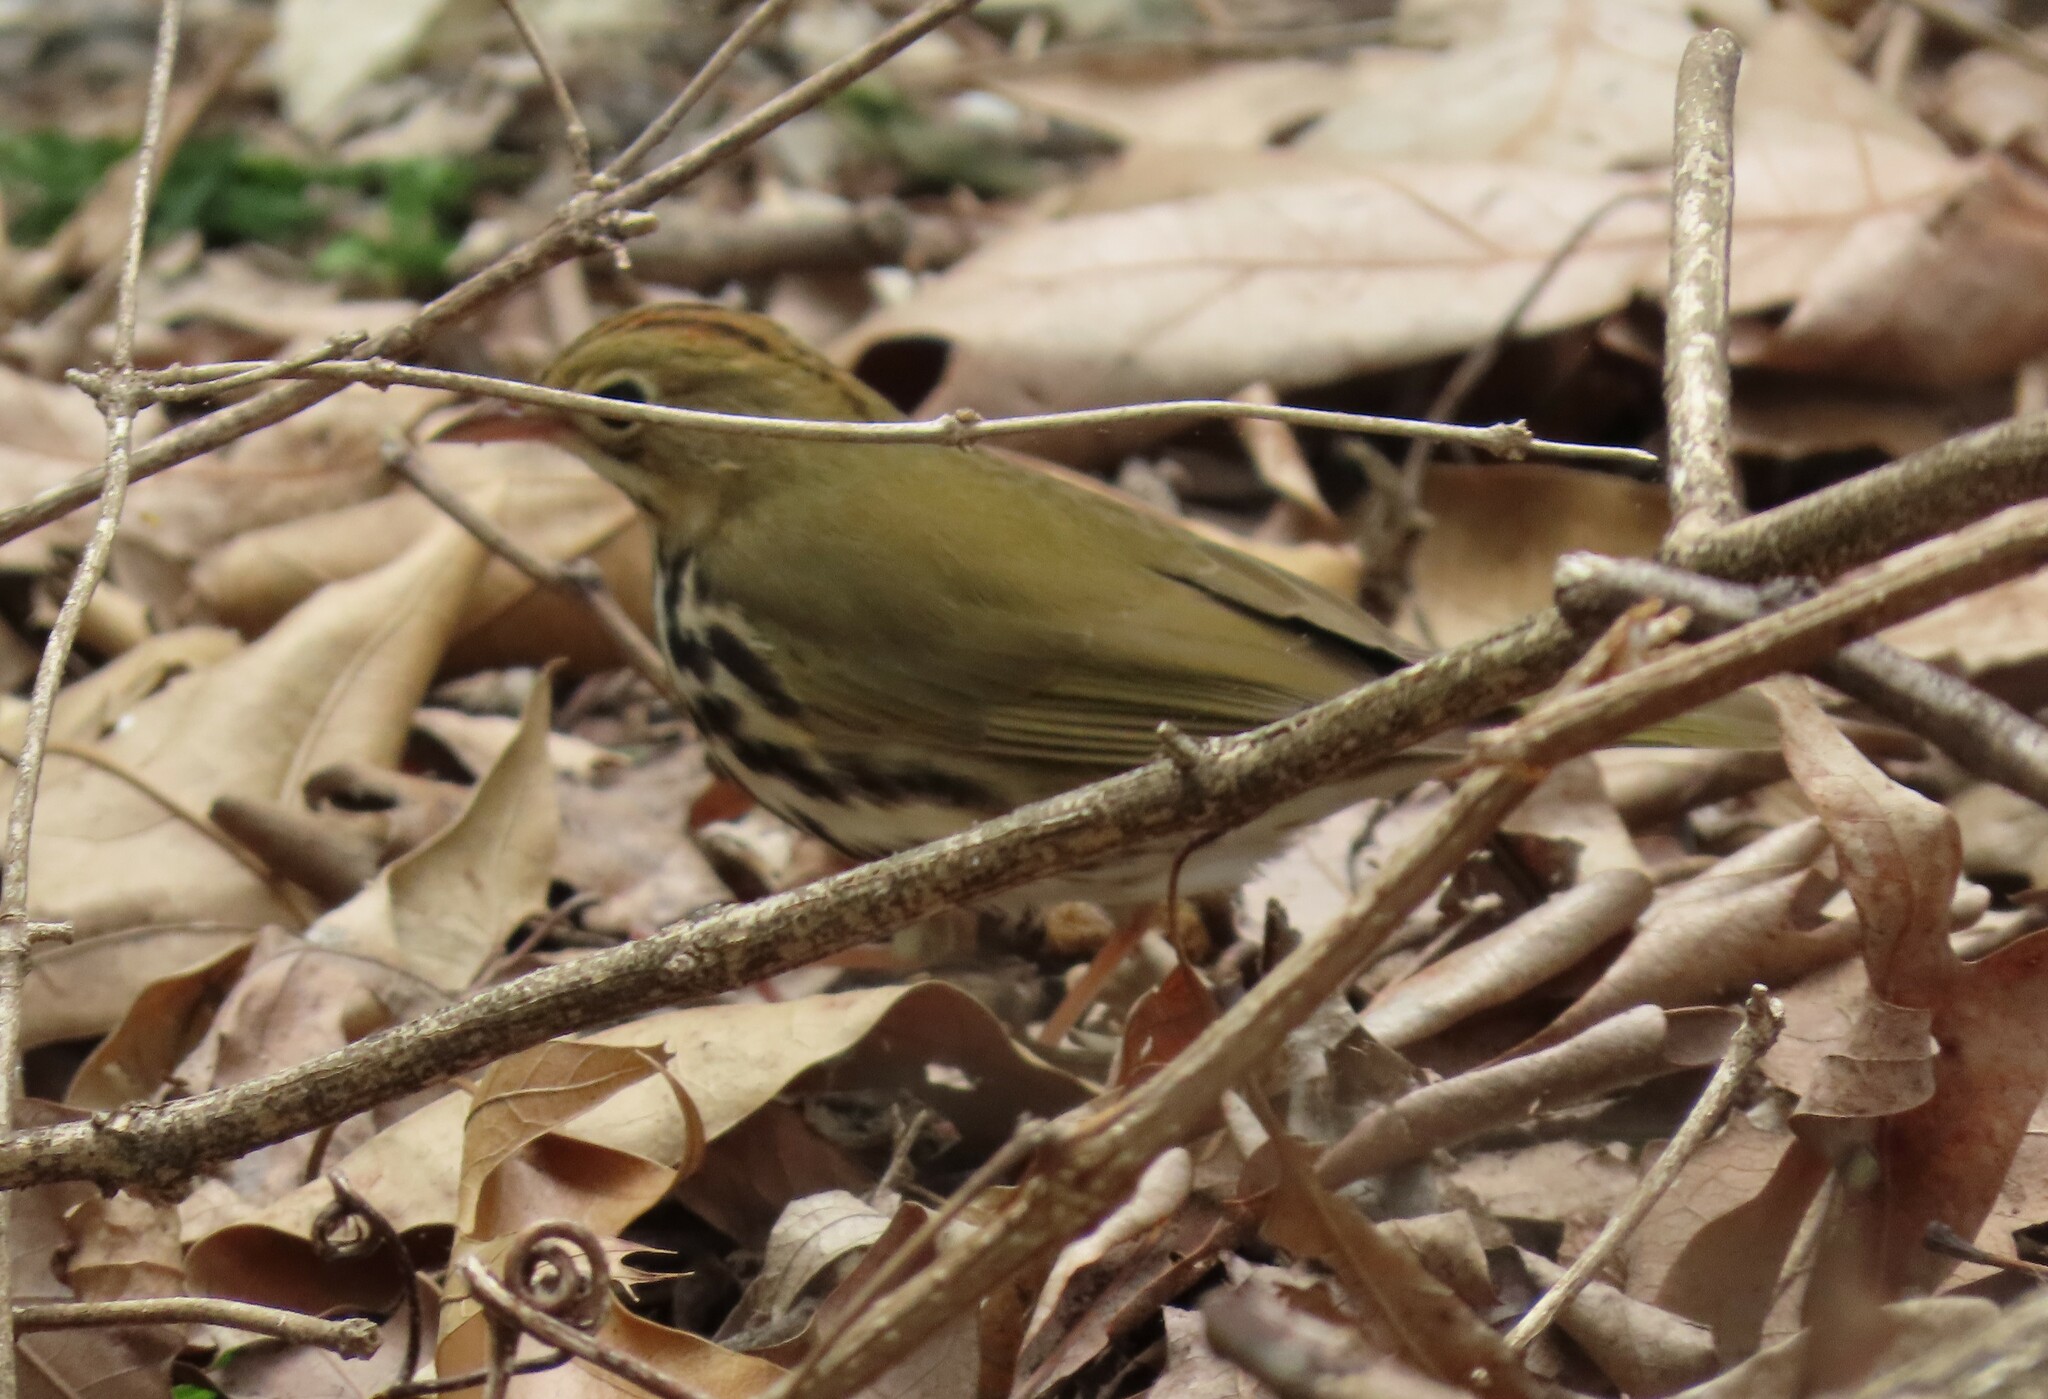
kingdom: Animalia
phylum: Chordata
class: Aves
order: Passeriformes
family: Parulidae
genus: Seiurus
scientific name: Seiurus aurocapilla
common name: Ovenbird
